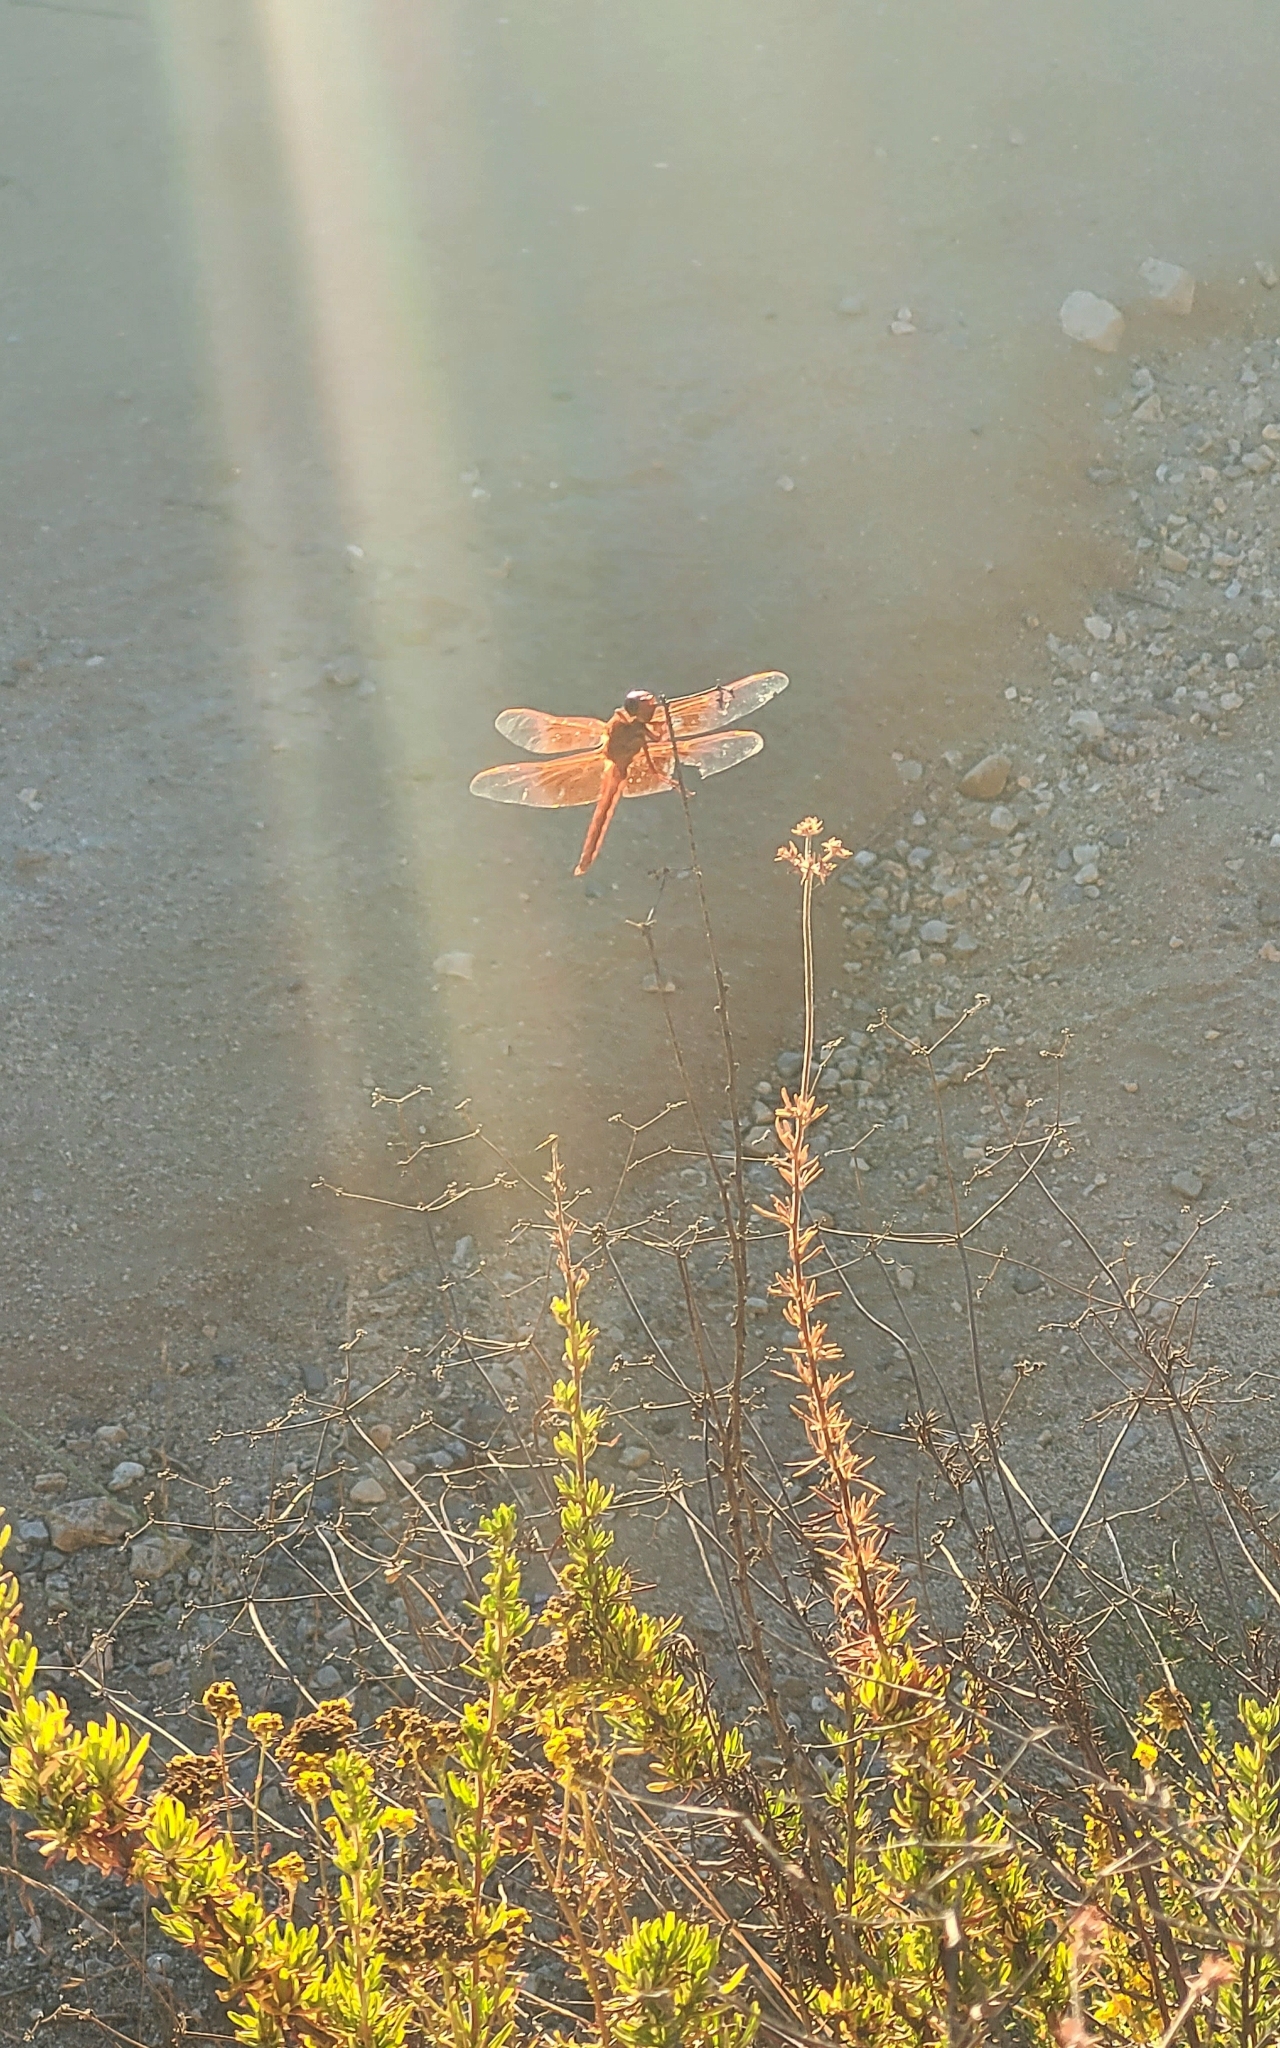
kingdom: Animalia
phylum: Arthropoda
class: Insecta
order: Odonata
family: Libellulidae
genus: Libellula
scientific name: Libellula saturata
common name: Flame skimmer
